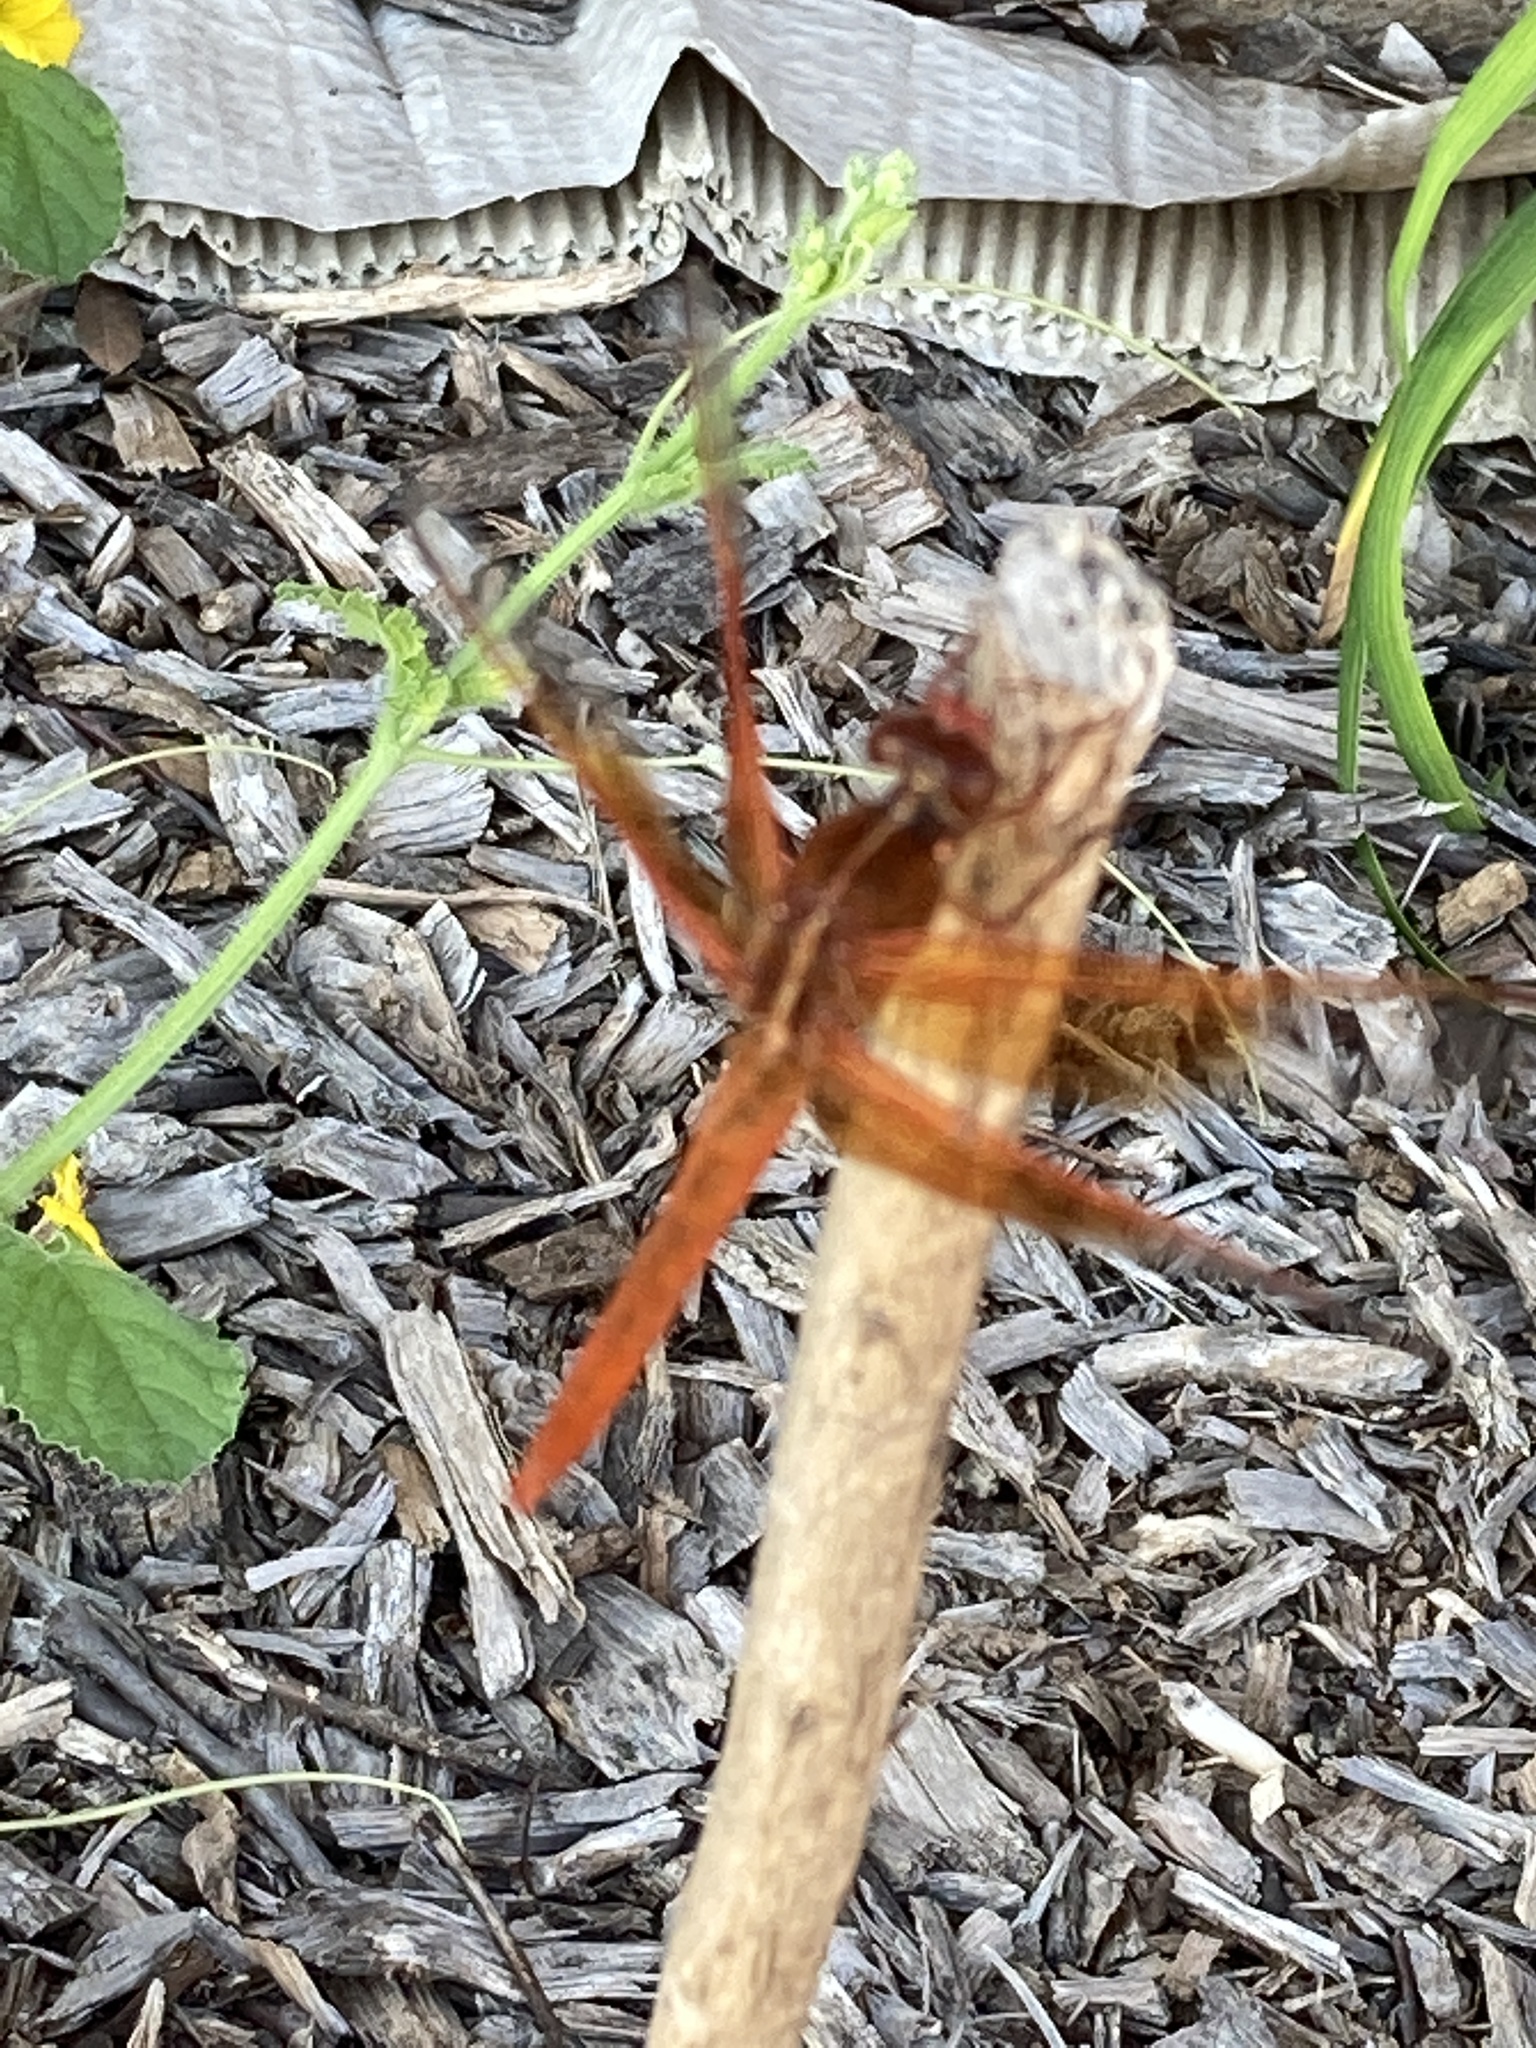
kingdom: Animalia
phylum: Arthropoda
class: Insecta
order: Odonata
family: Libellulidae
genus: Libellula
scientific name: Libellula saturata
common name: Flame skimmer
